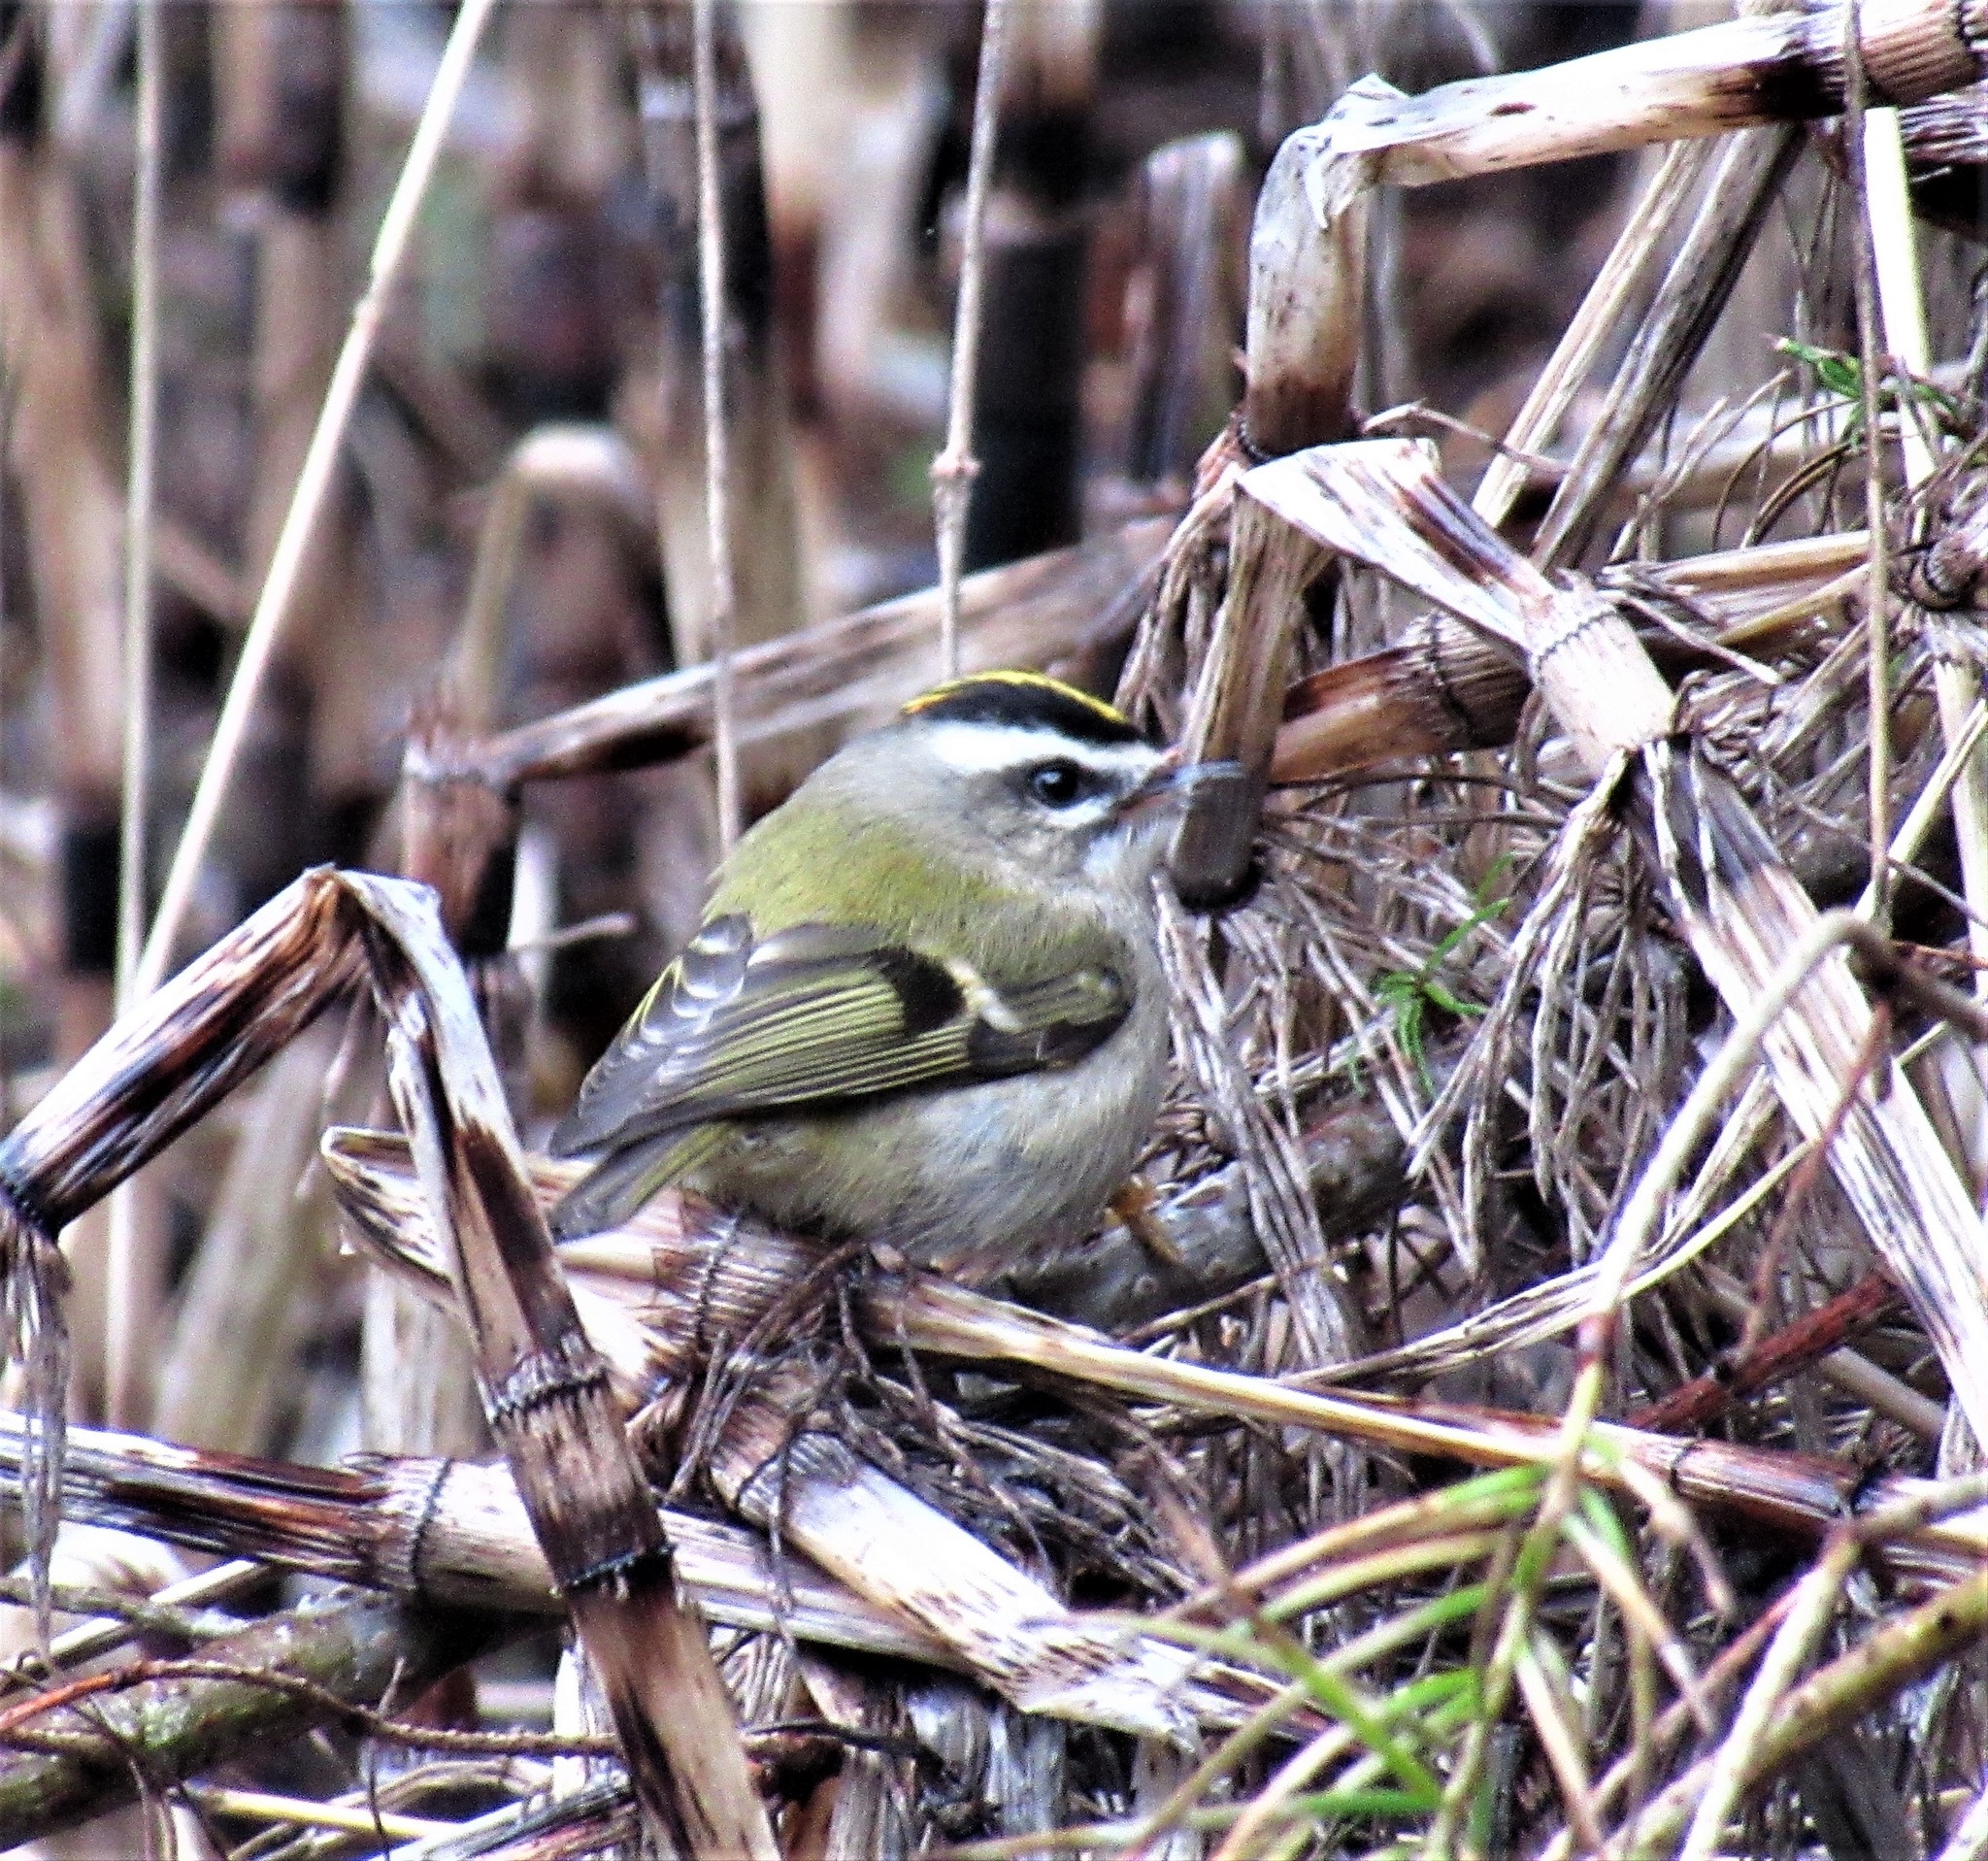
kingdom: Animalia
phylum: Chordata
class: Aves
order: Passeriformes
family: Regulidae
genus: Regulus
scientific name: Regulus satrapa
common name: Golden-crowned kinglet
